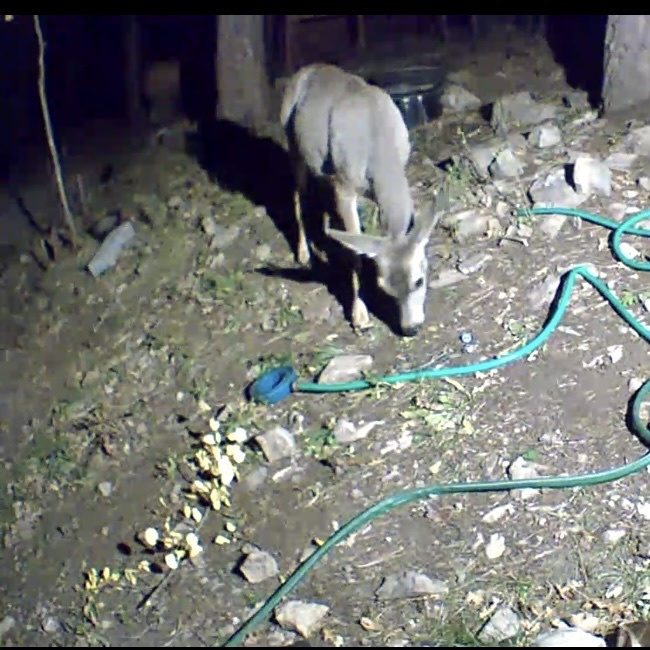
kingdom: Animalia
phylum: Chordata
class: Mammalia
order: Artiodactyla
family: Cervidae
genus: Odocoileus
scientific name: Odocoileus hemionus
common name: Mule deer
